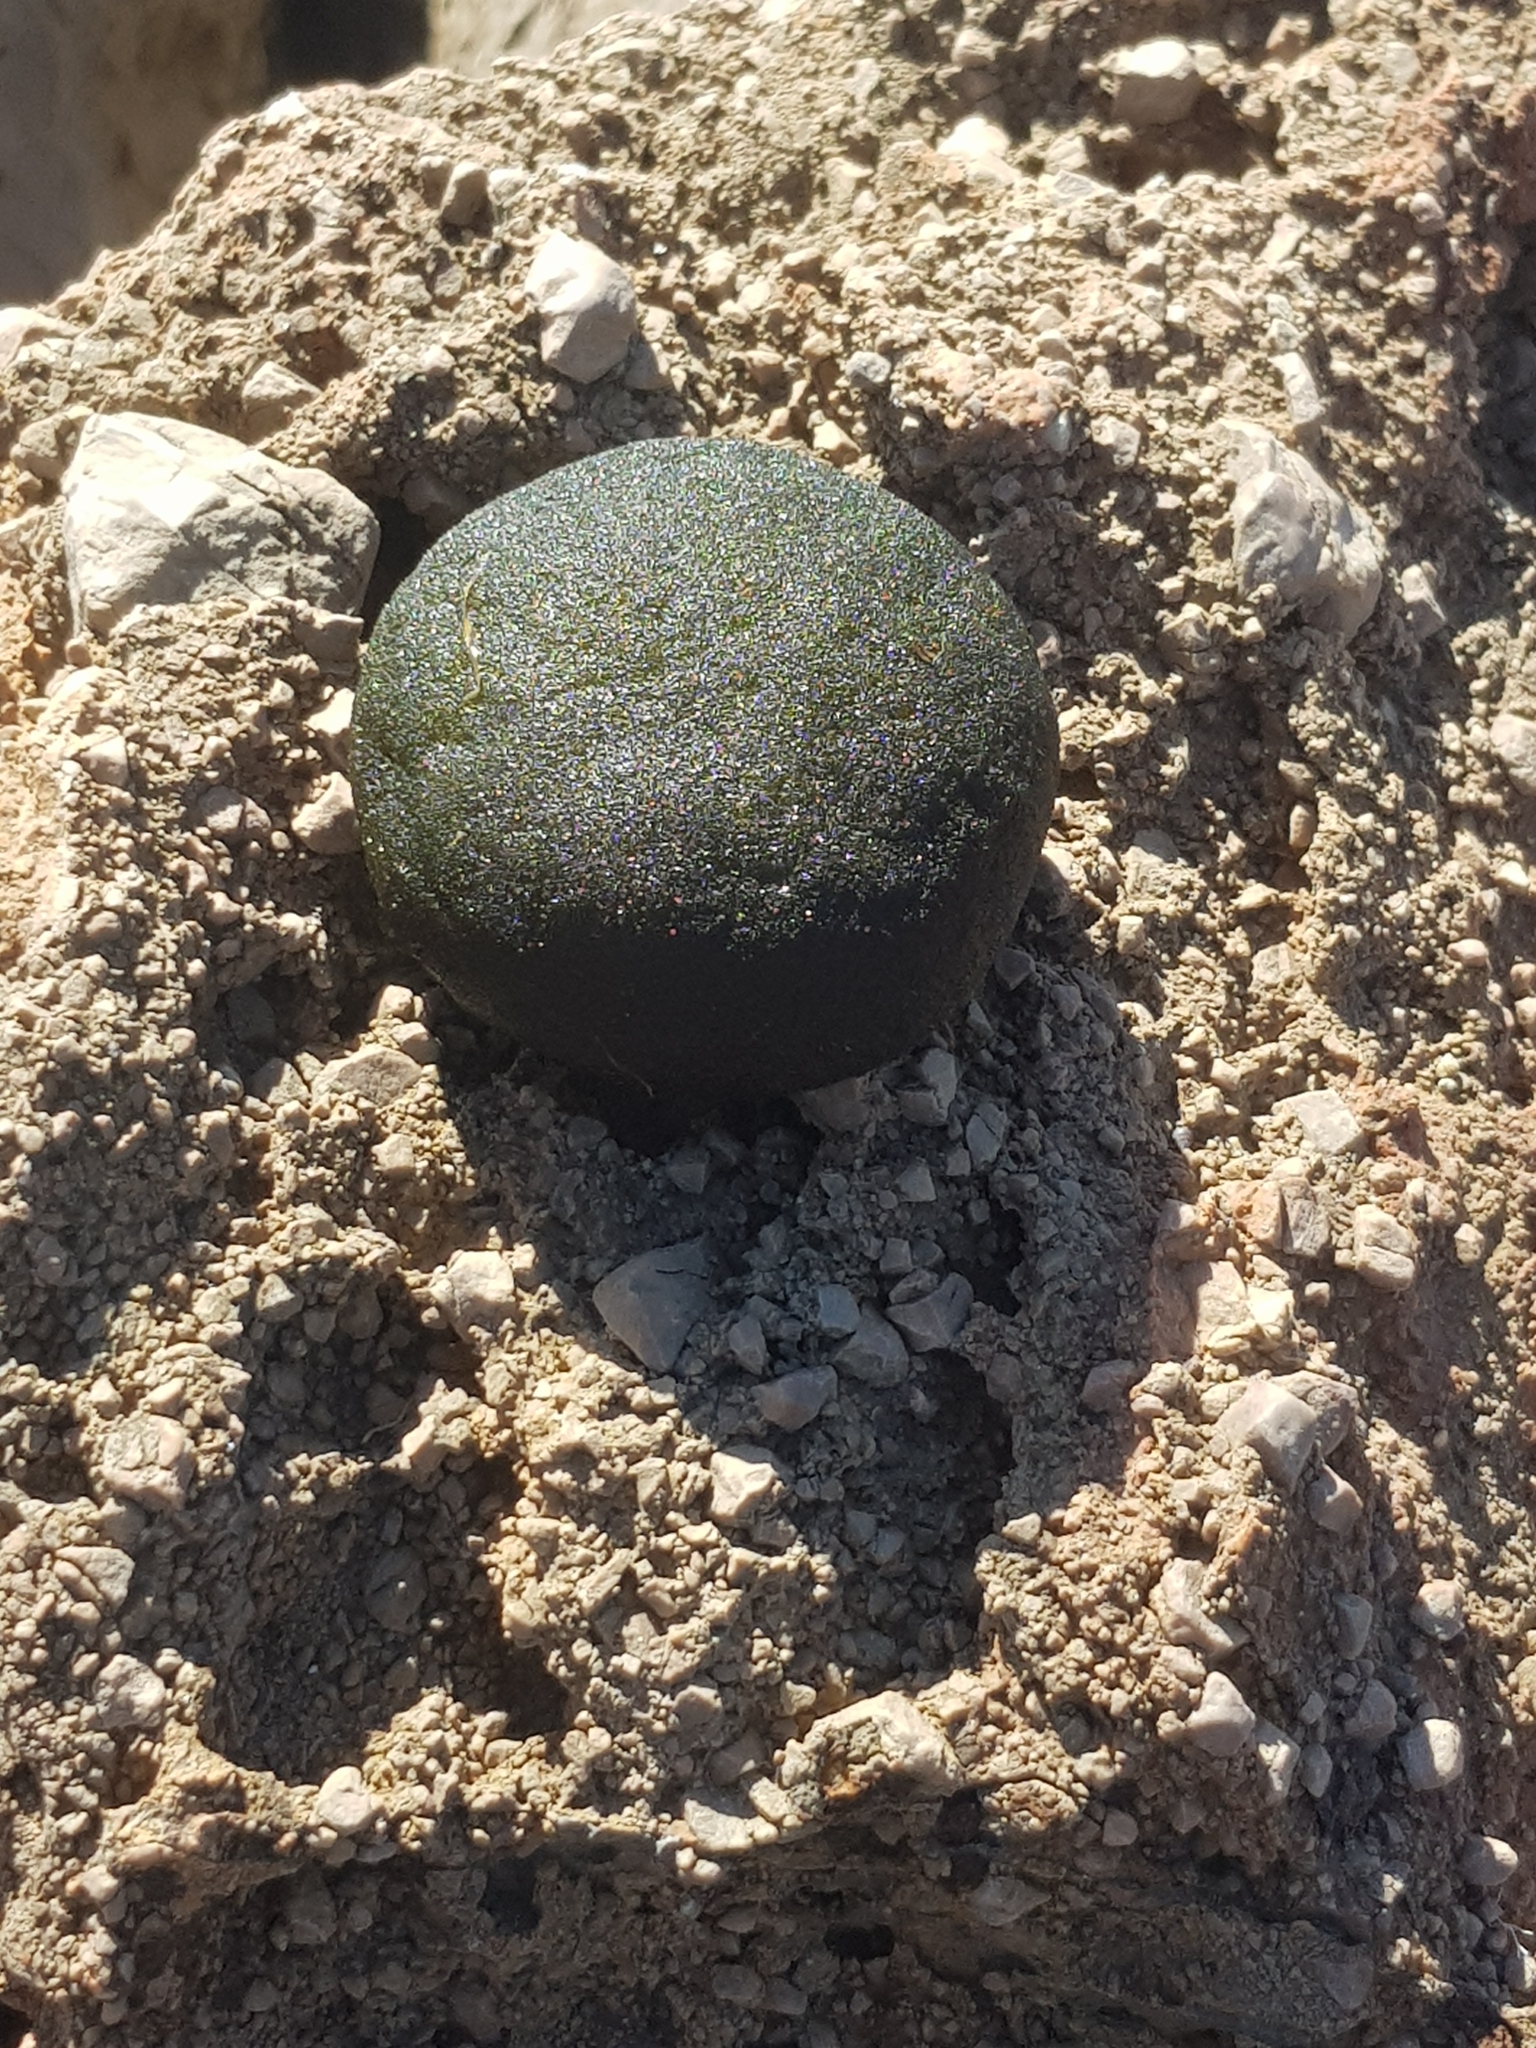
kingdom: Plantae
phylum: Chlorophyta
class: Ulvophyceae
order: Bryopsidales
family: Codiaceae
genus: Codium
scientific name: Codium bursa
